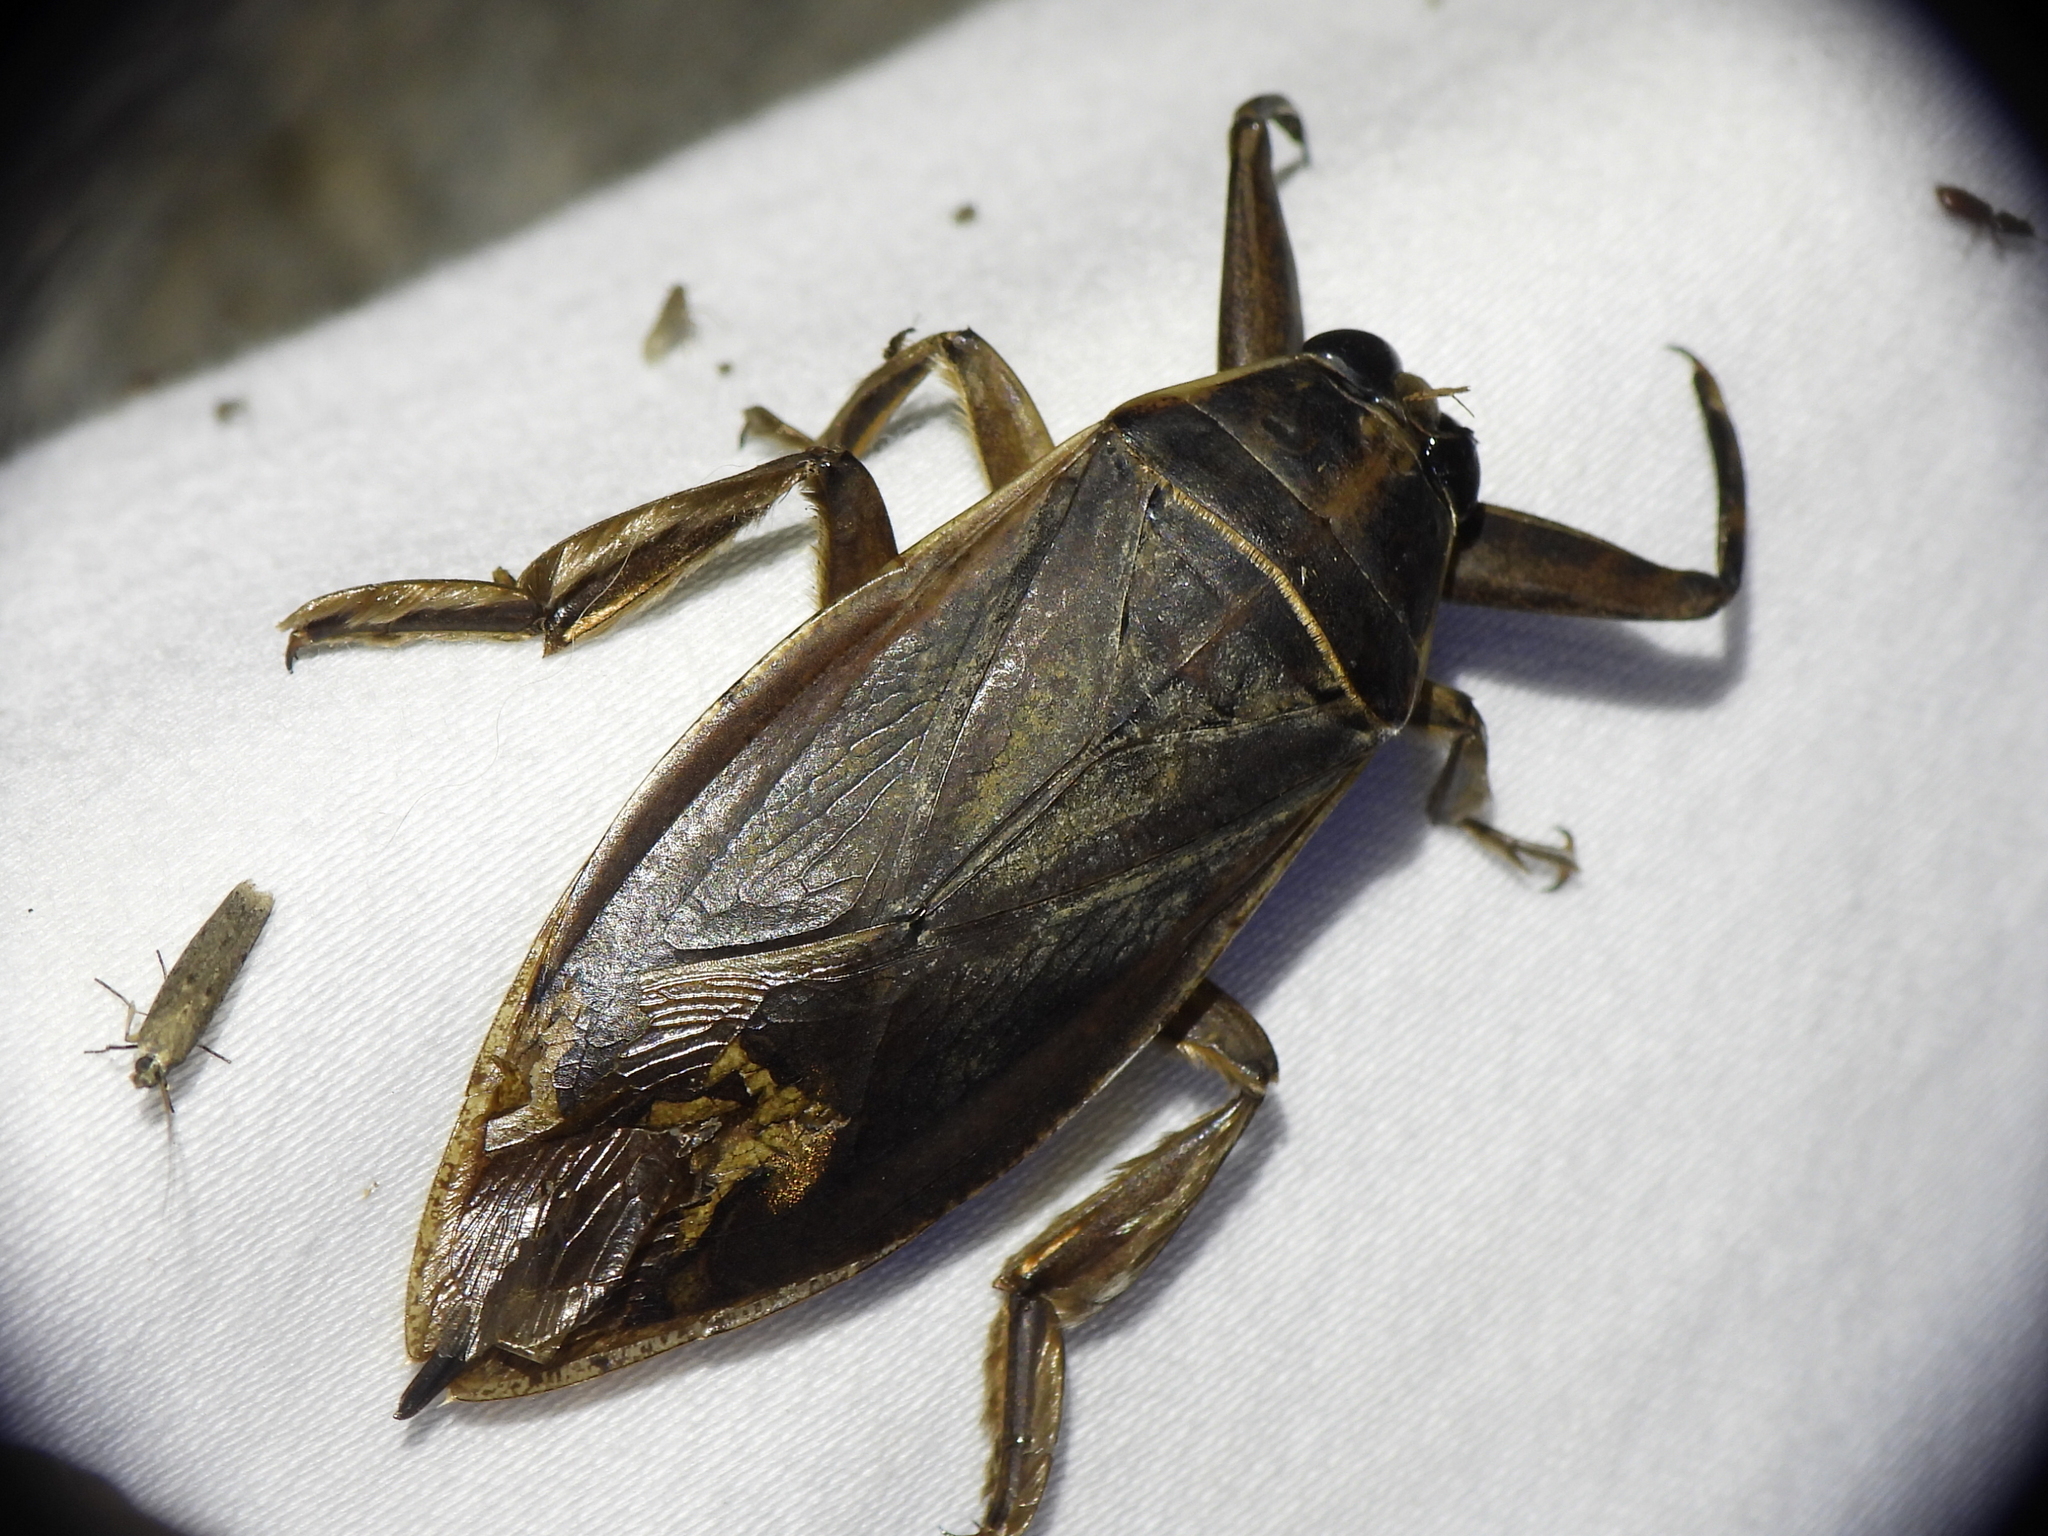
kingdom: Animalia
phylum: Arthropoda
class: Insecta
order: Hemiptera
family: Belostomatidae
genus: Benacus
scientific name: Benacus griseus
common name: Eastern toe-biter
